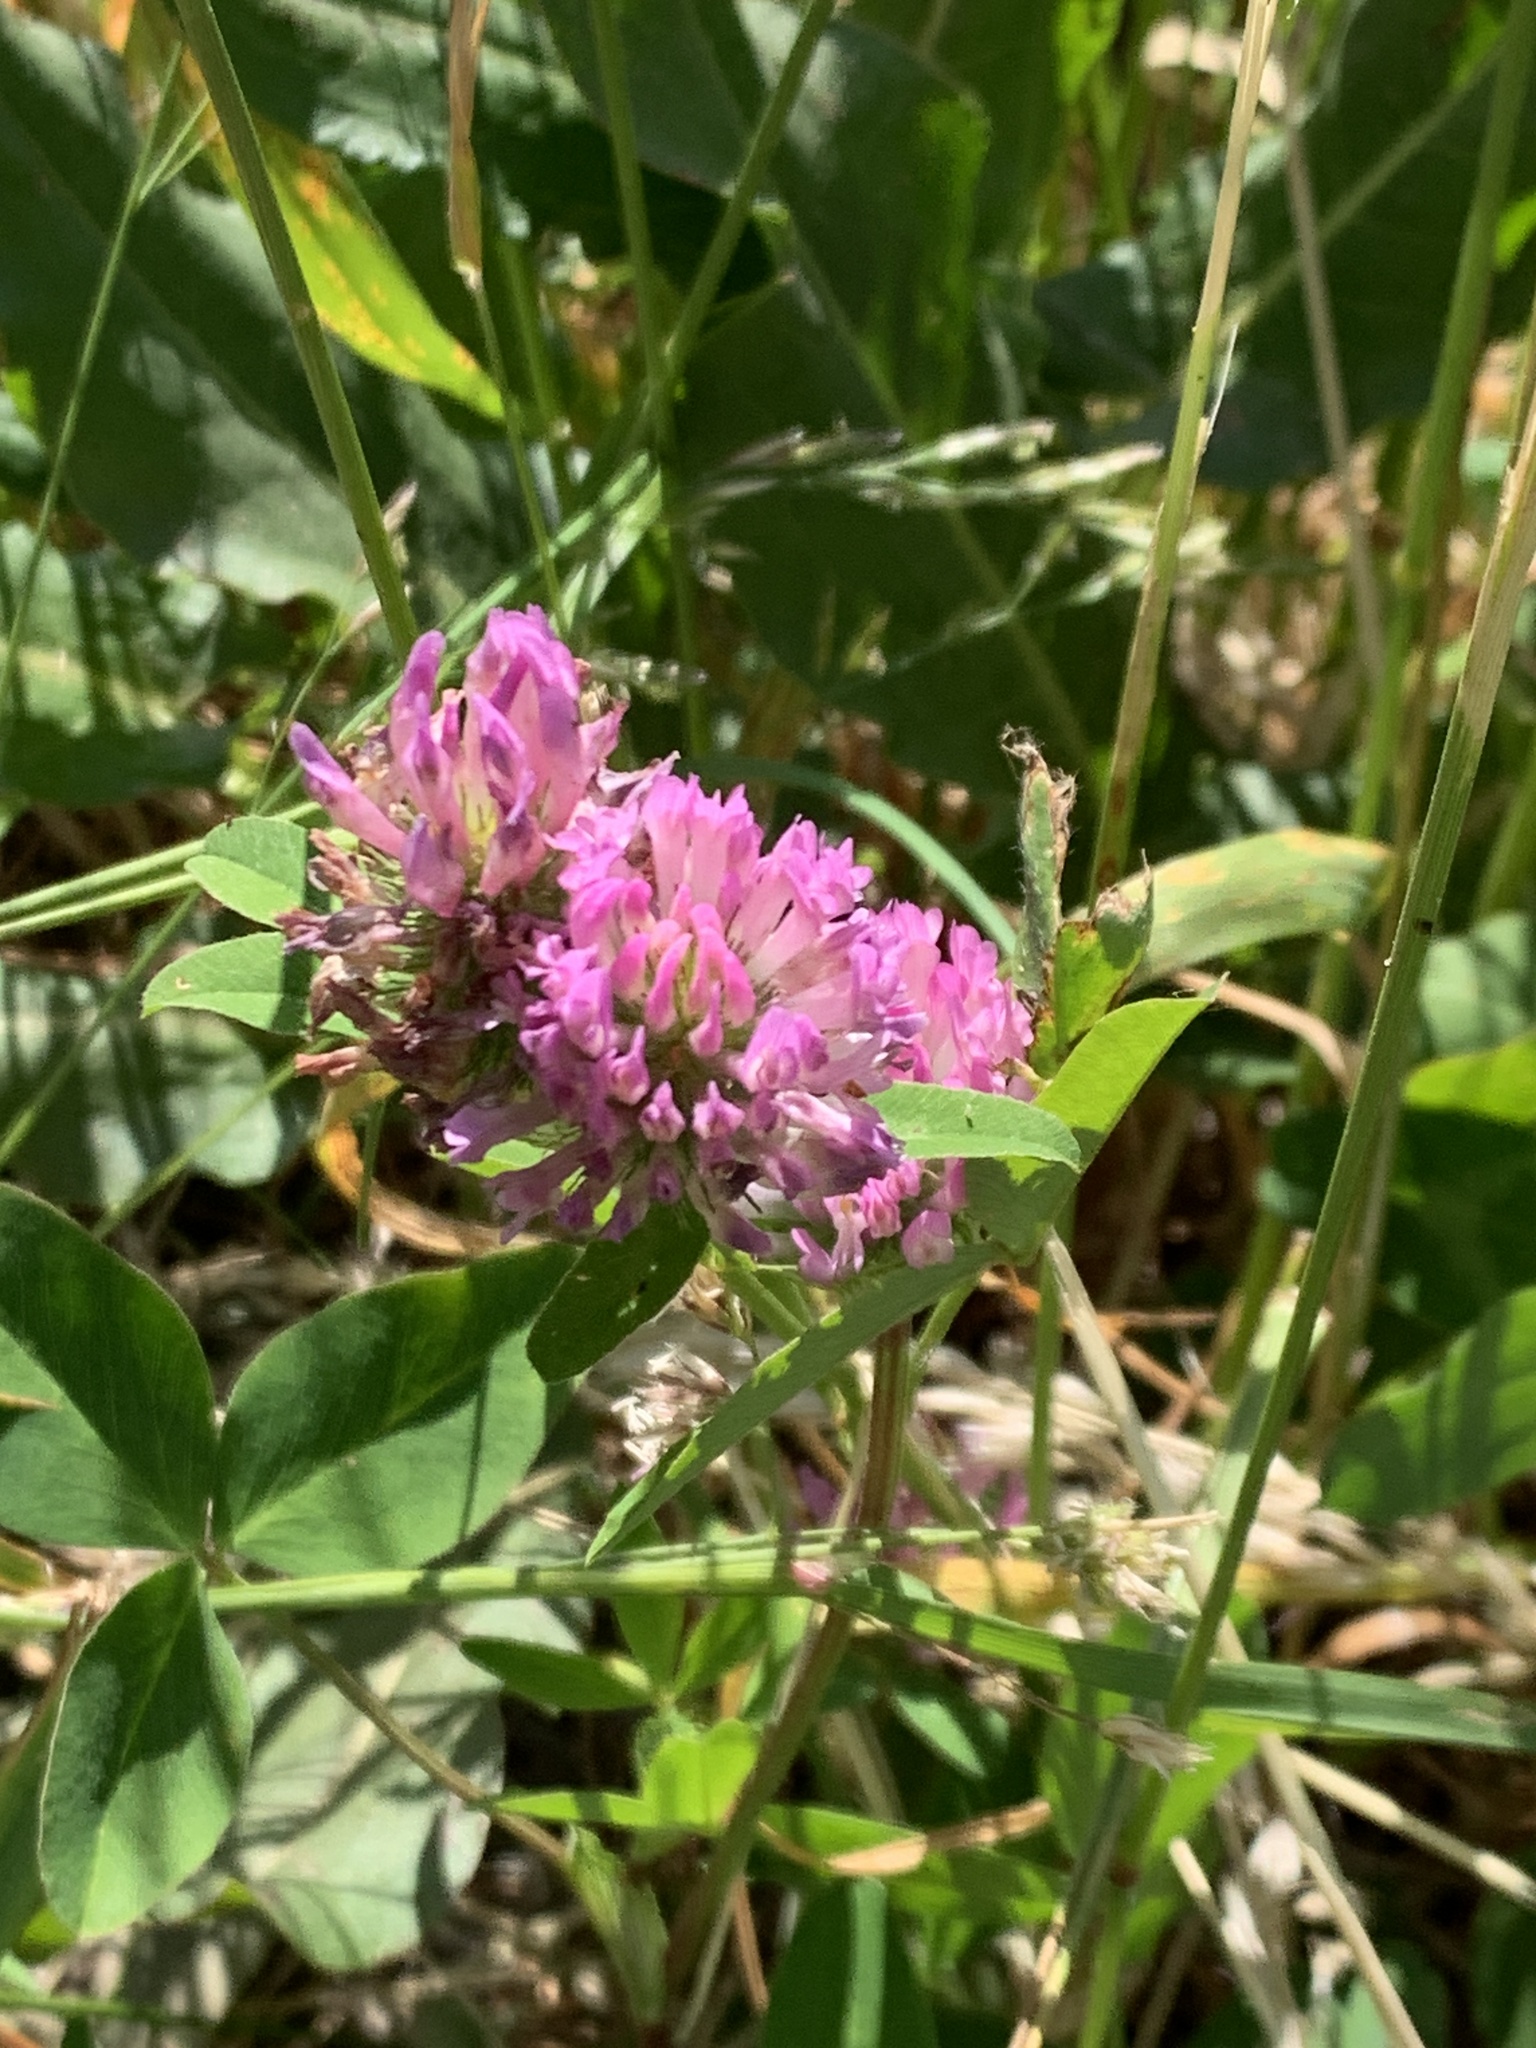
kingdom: Plantae
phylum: Tracheophyta
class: Magnoliopsida
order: Fabales
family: Fabaceae
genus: Trifolium
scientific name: Trifolium pratense
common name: Red clover
